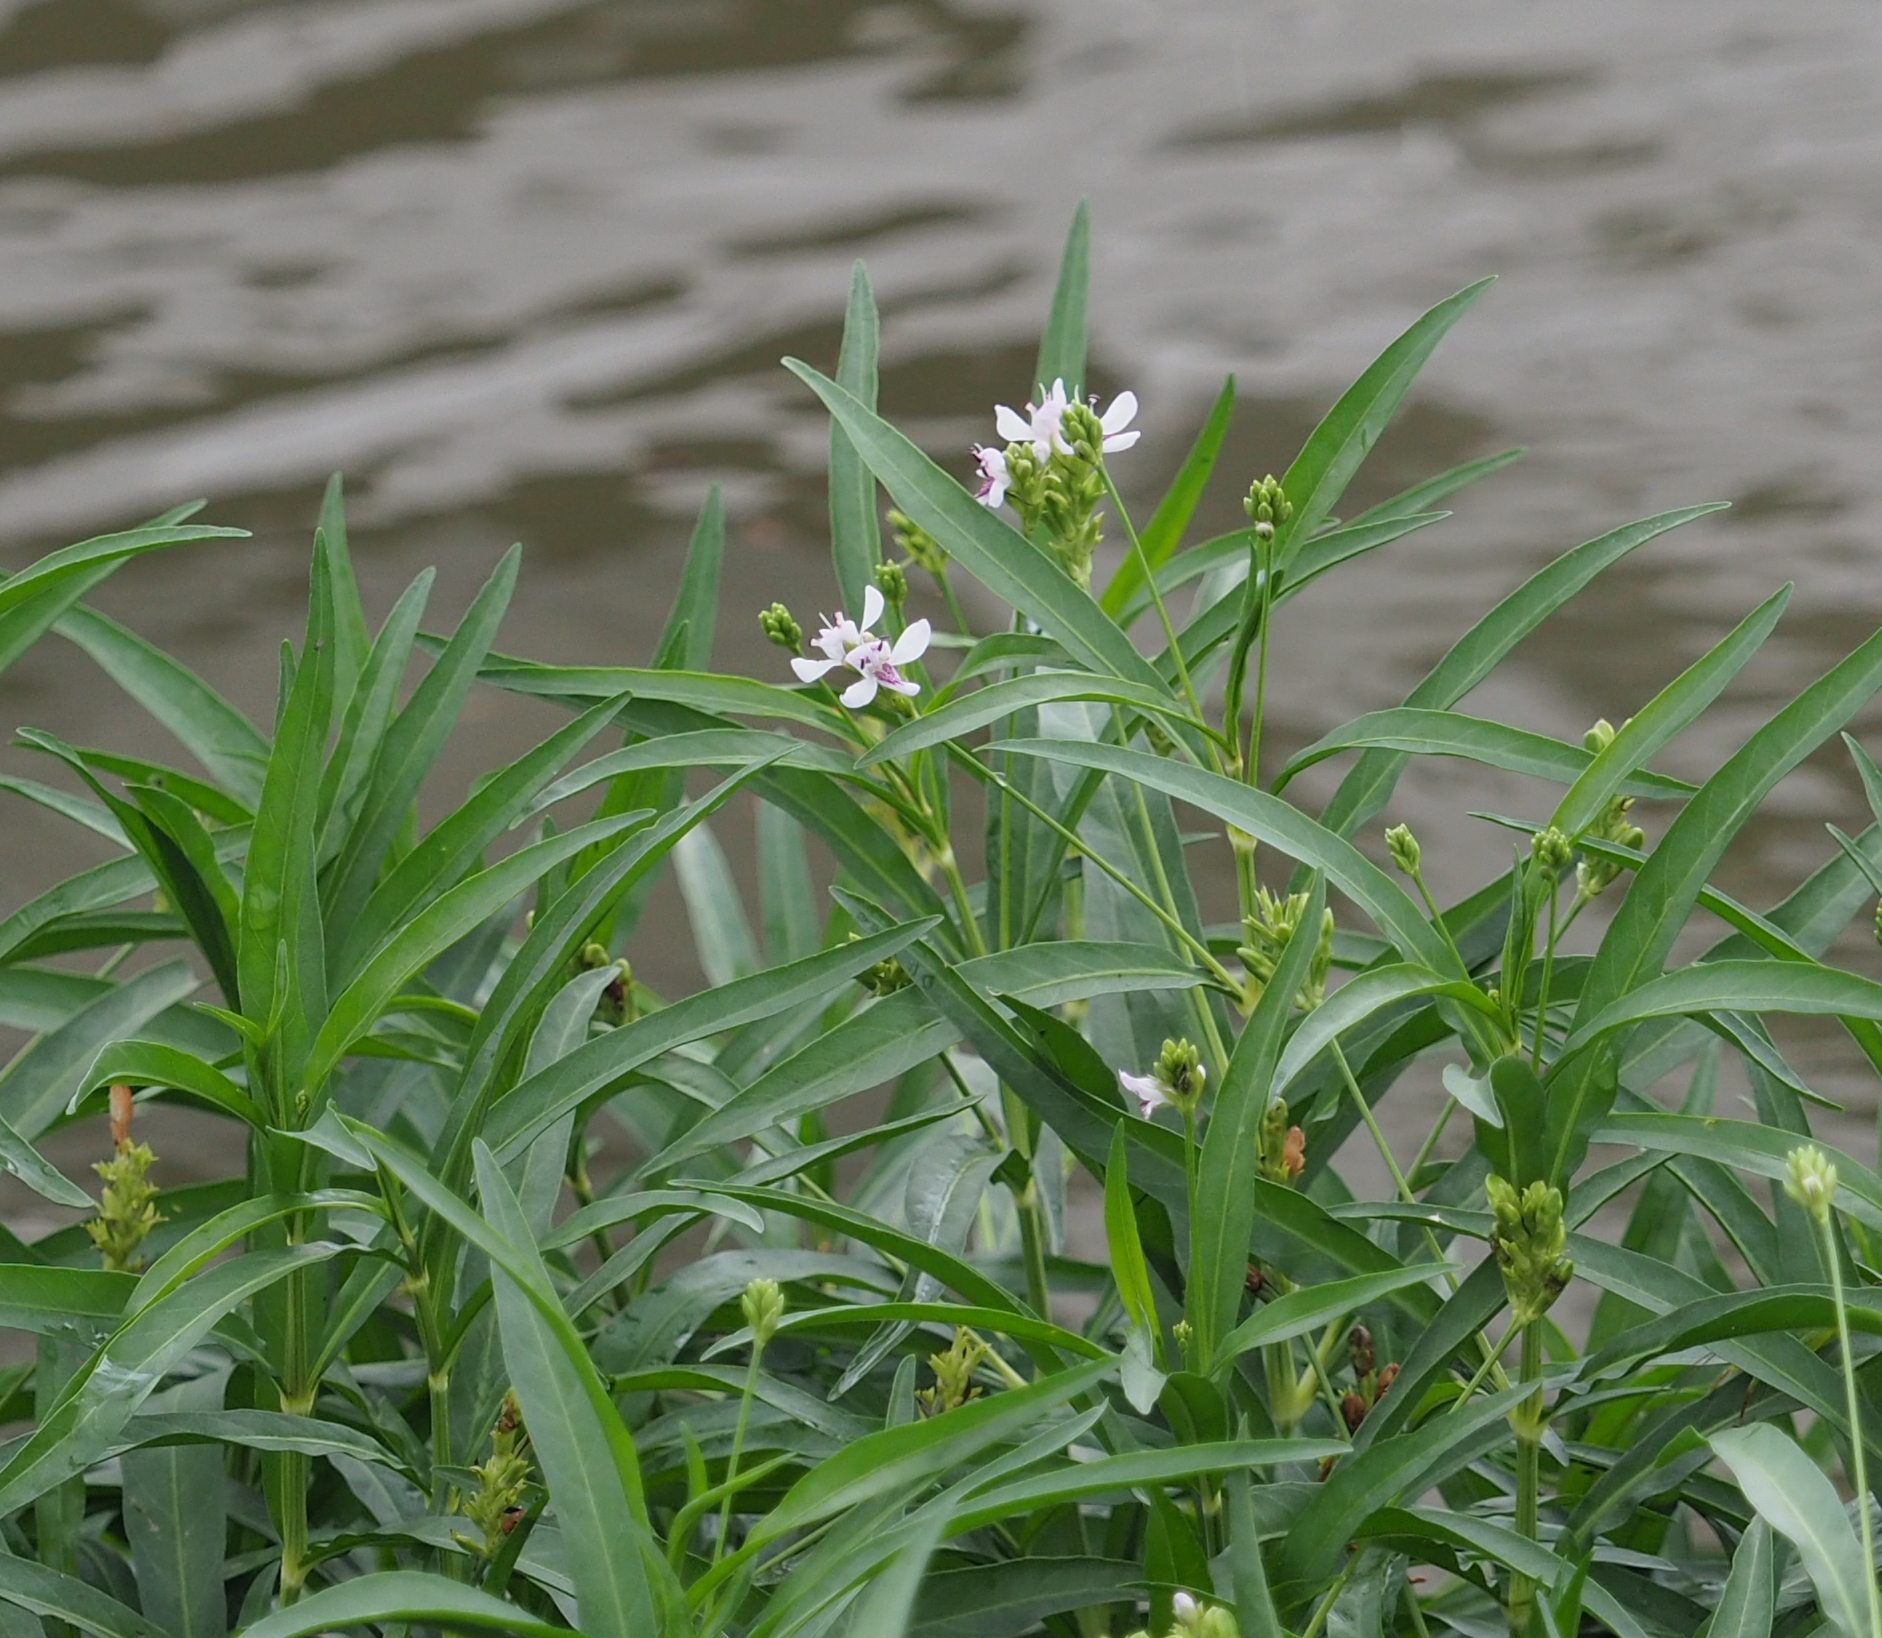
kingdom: Plantae
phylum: Tracheophyta
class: Magnoliopsida
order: Lamiales
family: Acanthaceae
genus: Dianthera
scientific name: Dianthera americana
